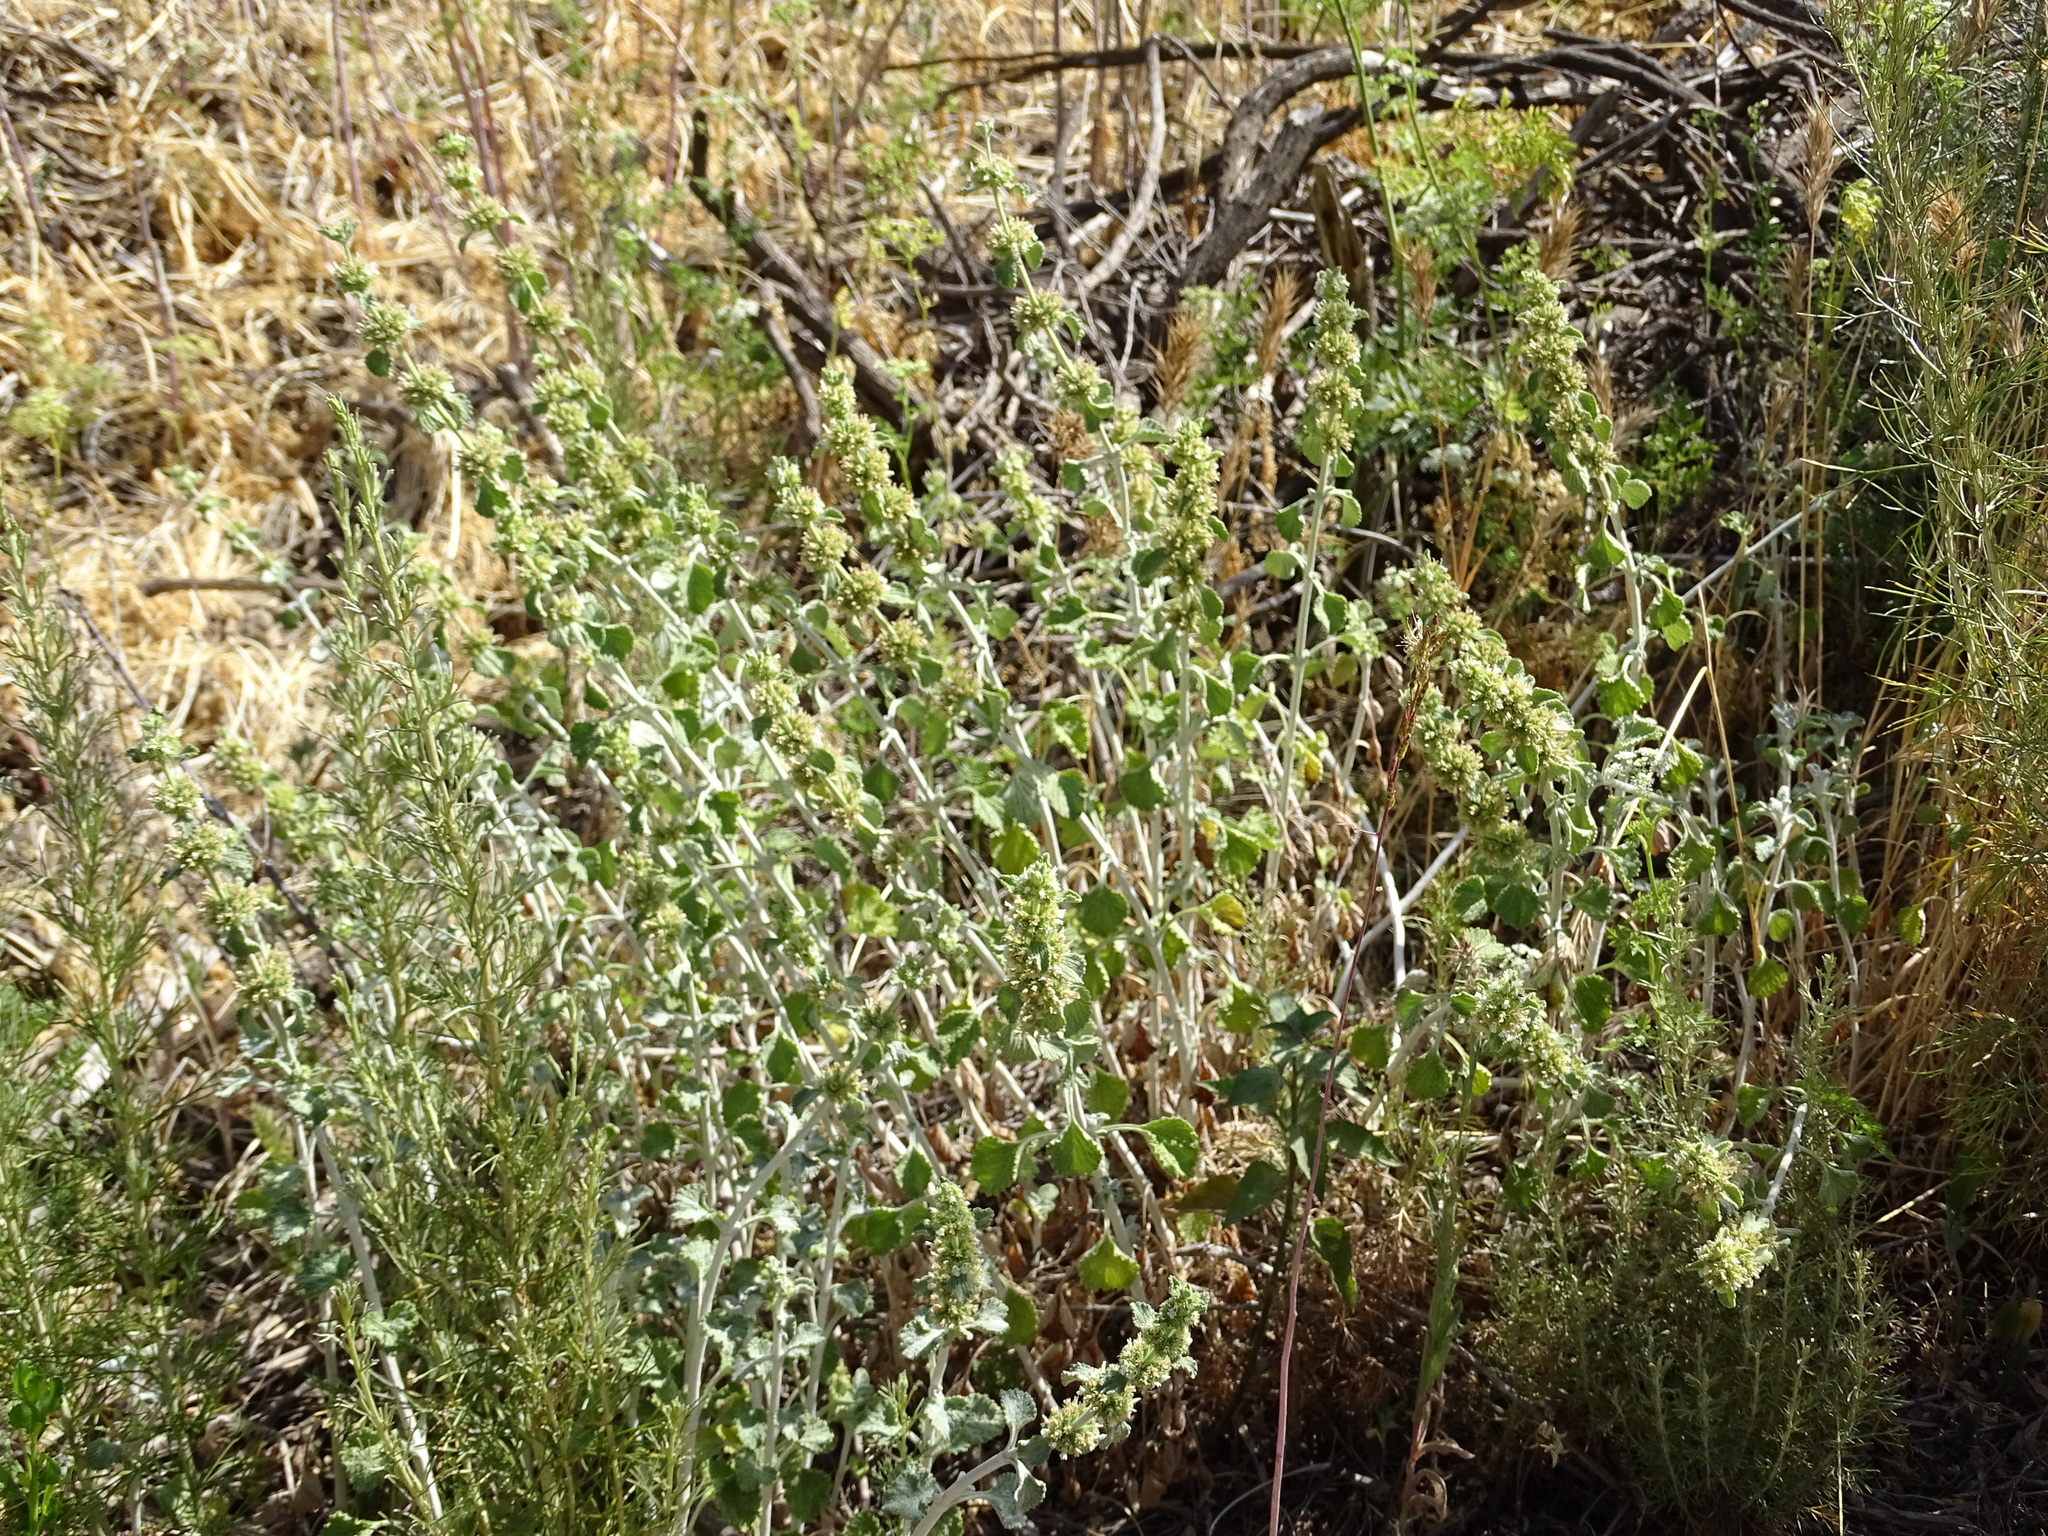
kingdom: Plantae
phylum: Tracheophyta
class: Magnoliopsida
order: Lamiales
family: Lamiaceae
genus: Marrubium
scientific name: Marrubium vulgare
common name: Horehound
